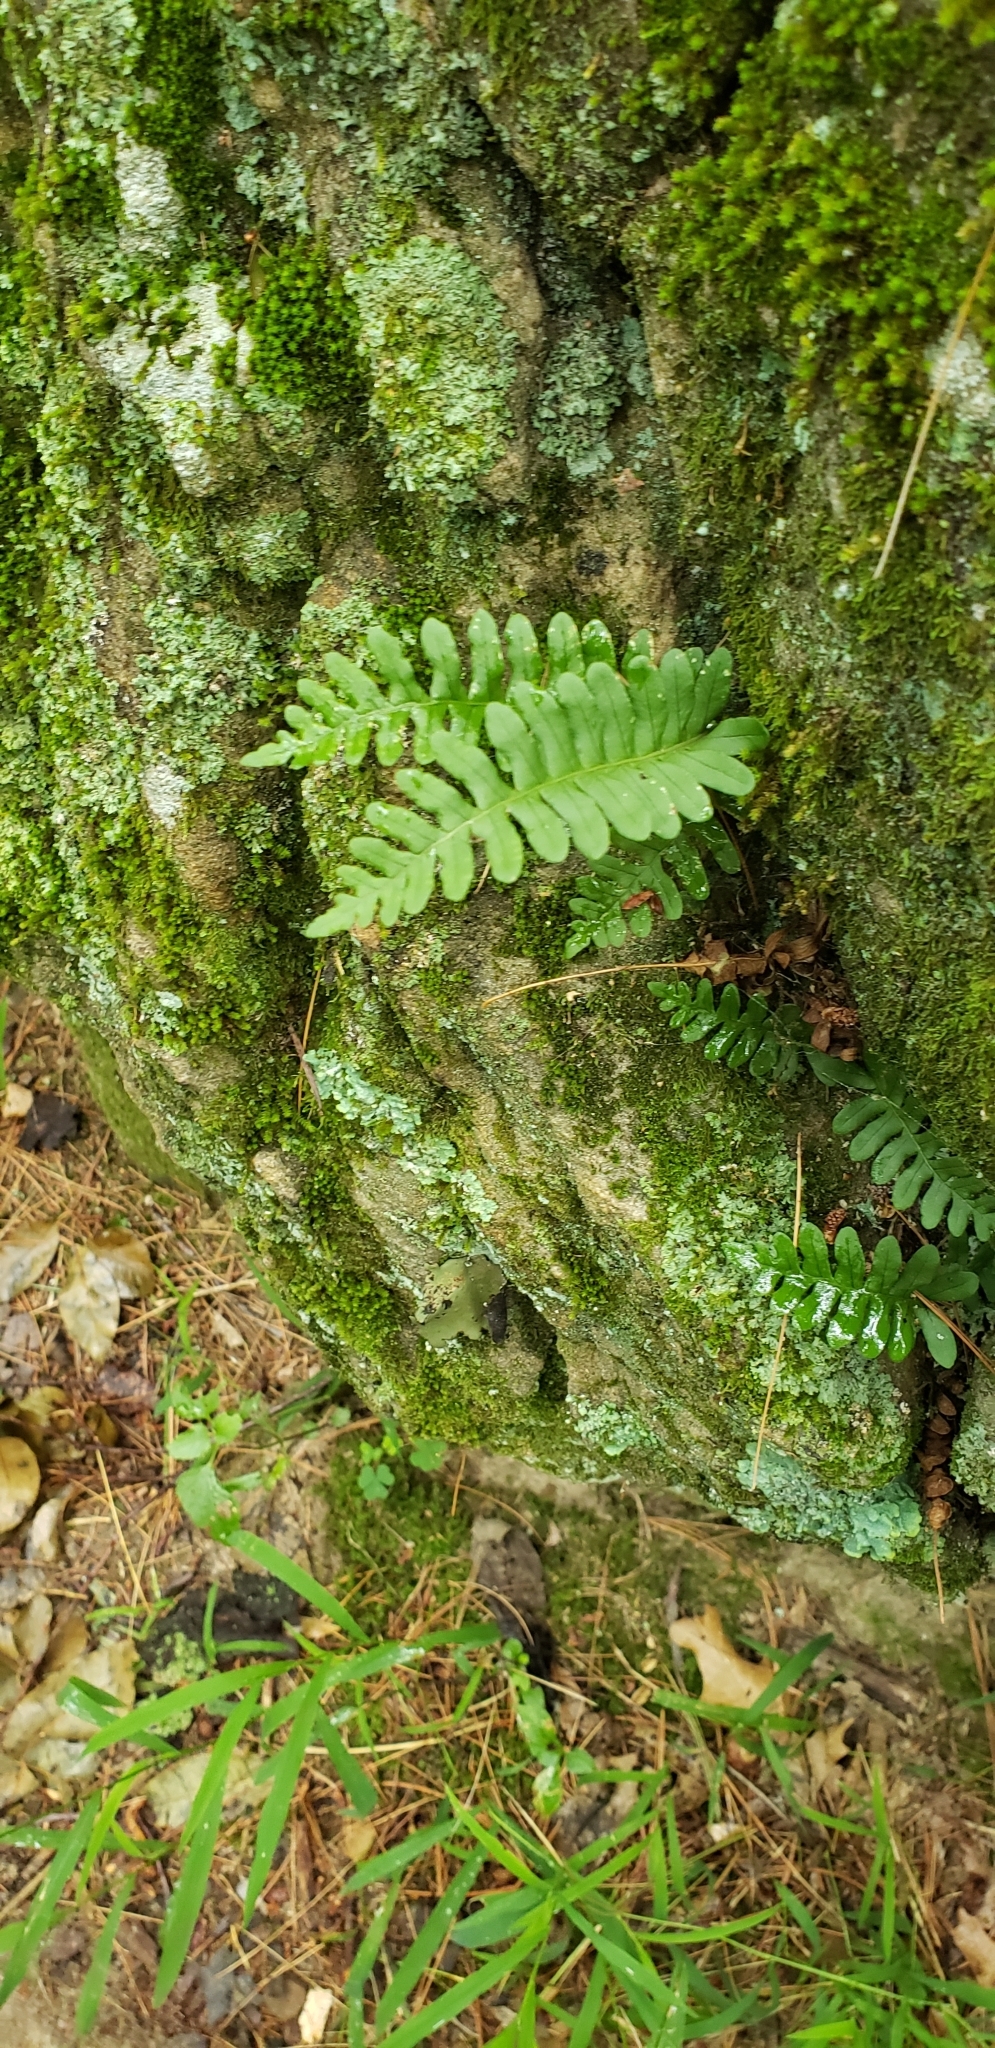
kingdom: Plantae
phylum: Tracheophyta
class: Polypodiopsida
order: Polypodiales
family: Polypodiaceae
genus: Polypodium
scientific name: Polypodium virginianum
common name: American wall fern
